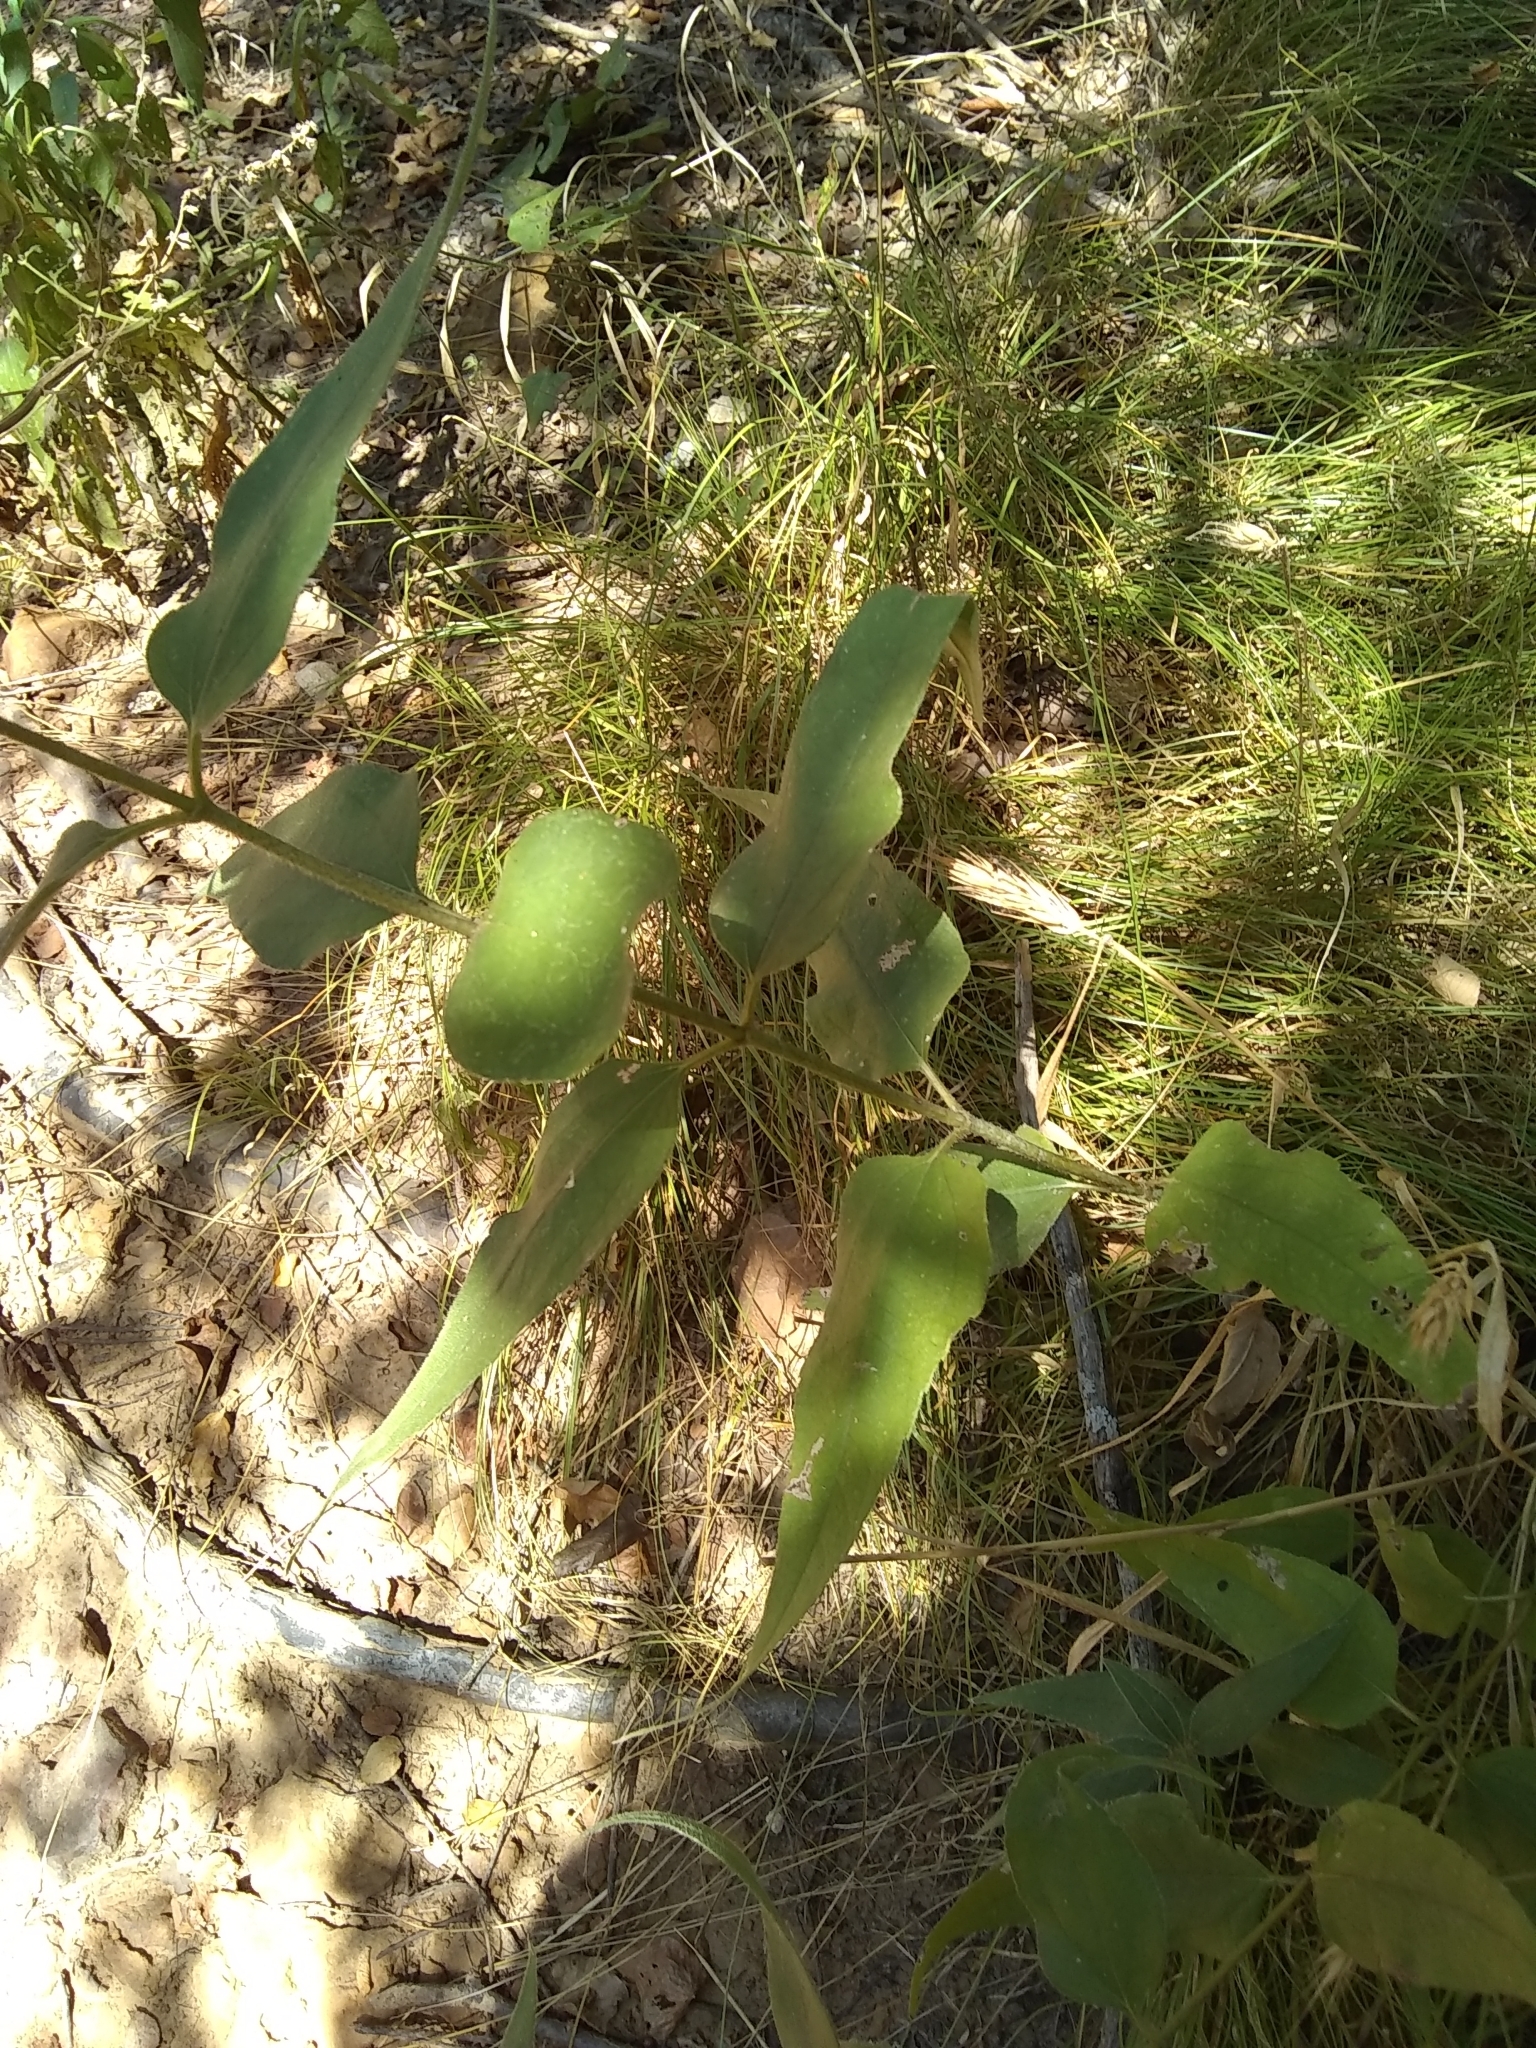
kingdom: Plantae
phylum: Tracheophyta
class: Magnoliopsida
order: Asterales
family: Asteraceae
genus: Helianthus
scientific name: Helianthus hirsutus
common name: Hairy sunflower
